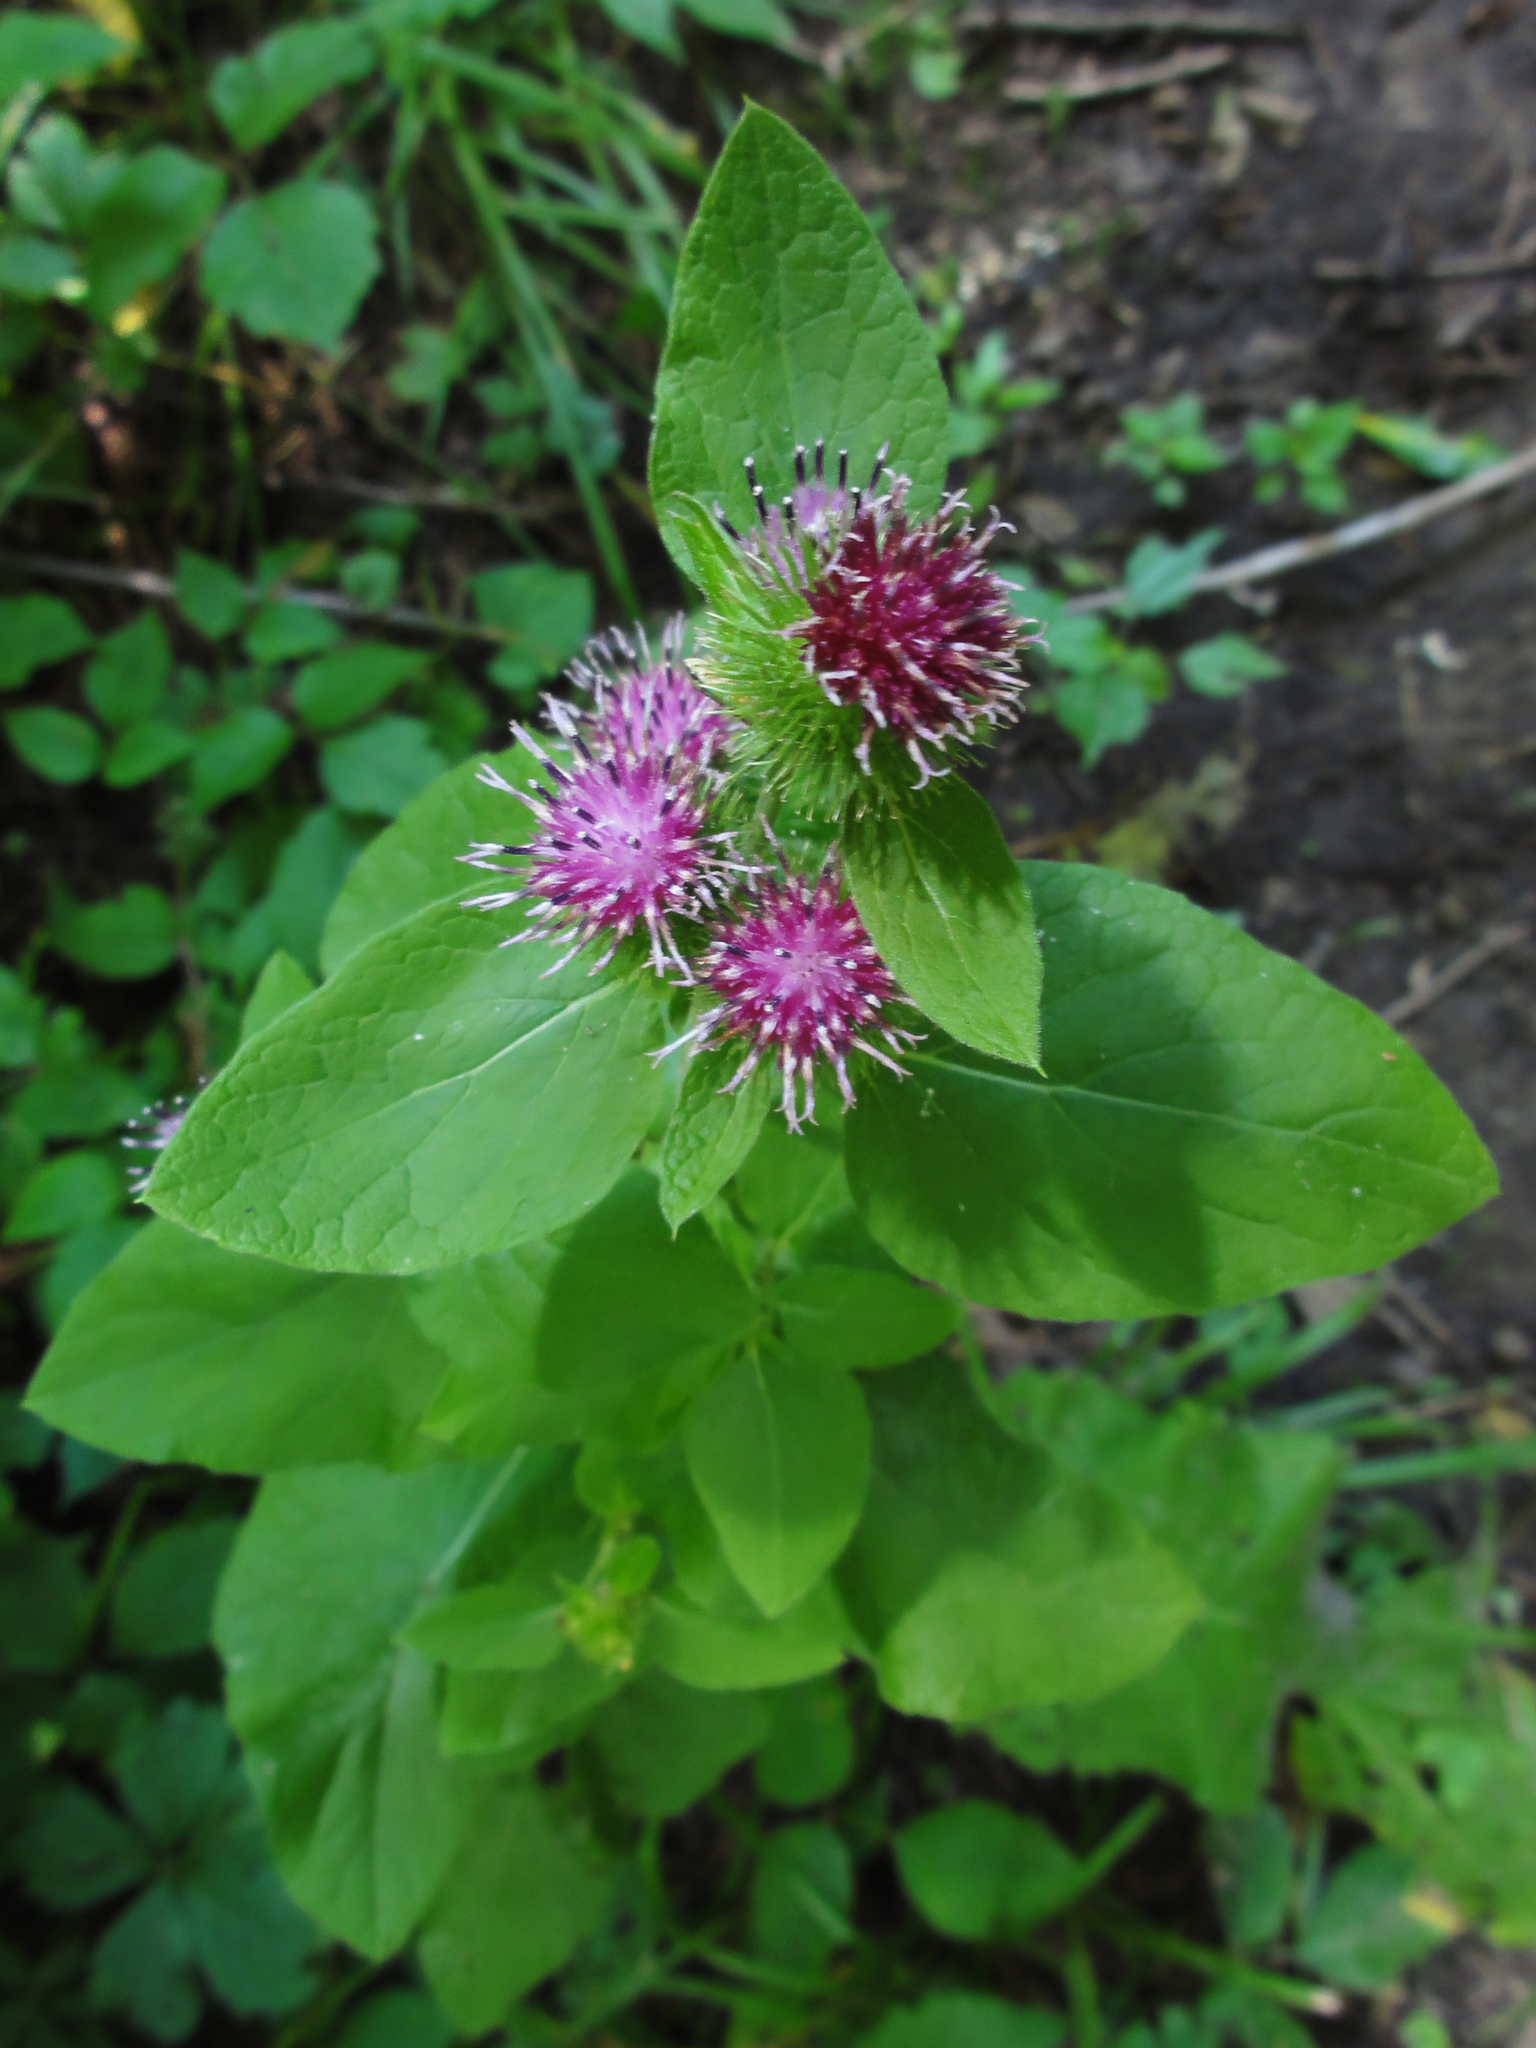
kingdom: Plantae
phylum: Tracheophyta
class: Magnoliopsida
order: Asterales
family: Asteraceae
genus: Arctium
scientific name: Arctium minus
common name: Lesser burdock
